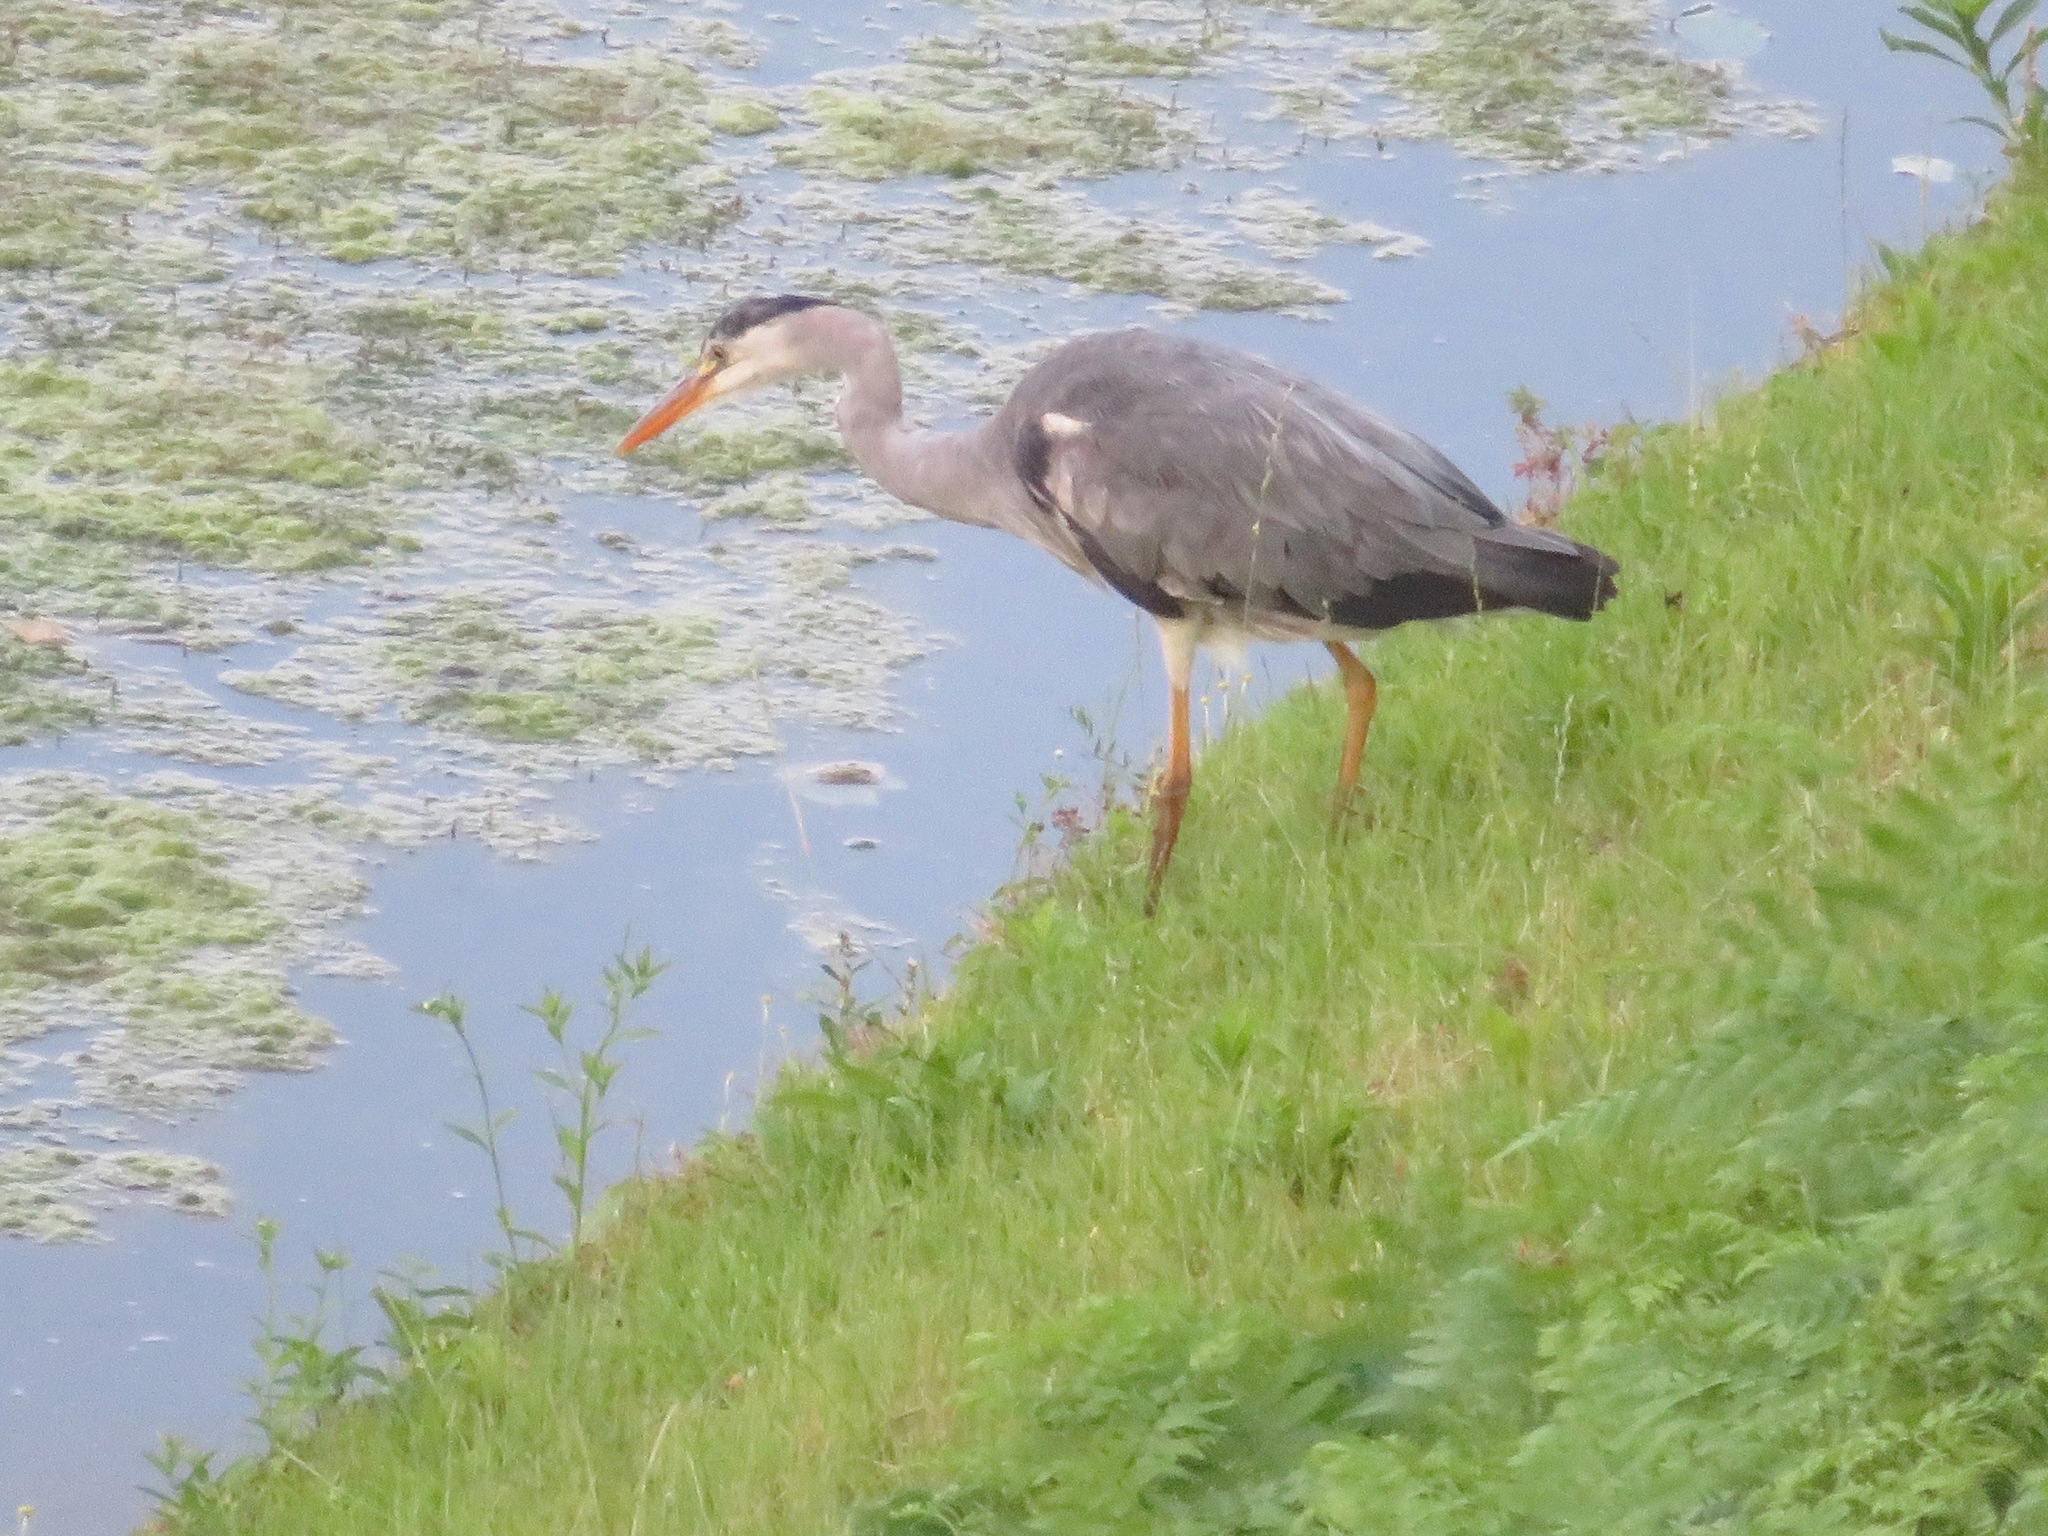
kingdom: Animalia
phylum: Chordata
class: Aves
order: Pelecaniformes
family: Ardeidae
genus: Ardea
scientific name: Ardea cinerea
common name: Grey heron
